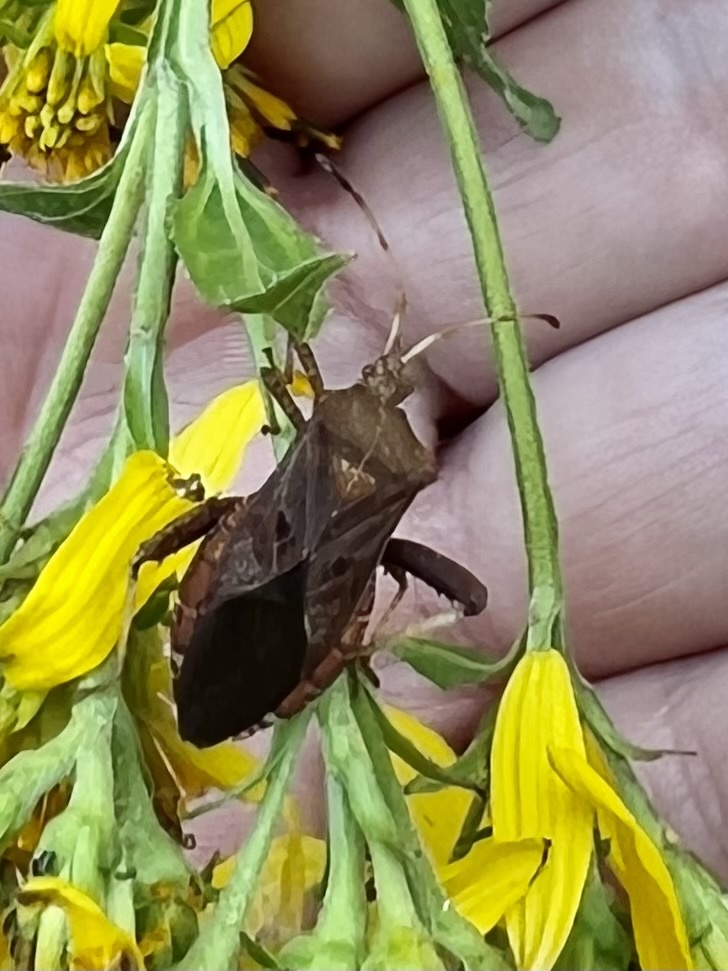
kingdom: Animalia
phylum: Arthropoda
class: Insecta
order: Hemiptera
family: Coreidae
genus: Euthochtha
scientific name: Euthochtha galeator
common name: Helmeted squash bug
